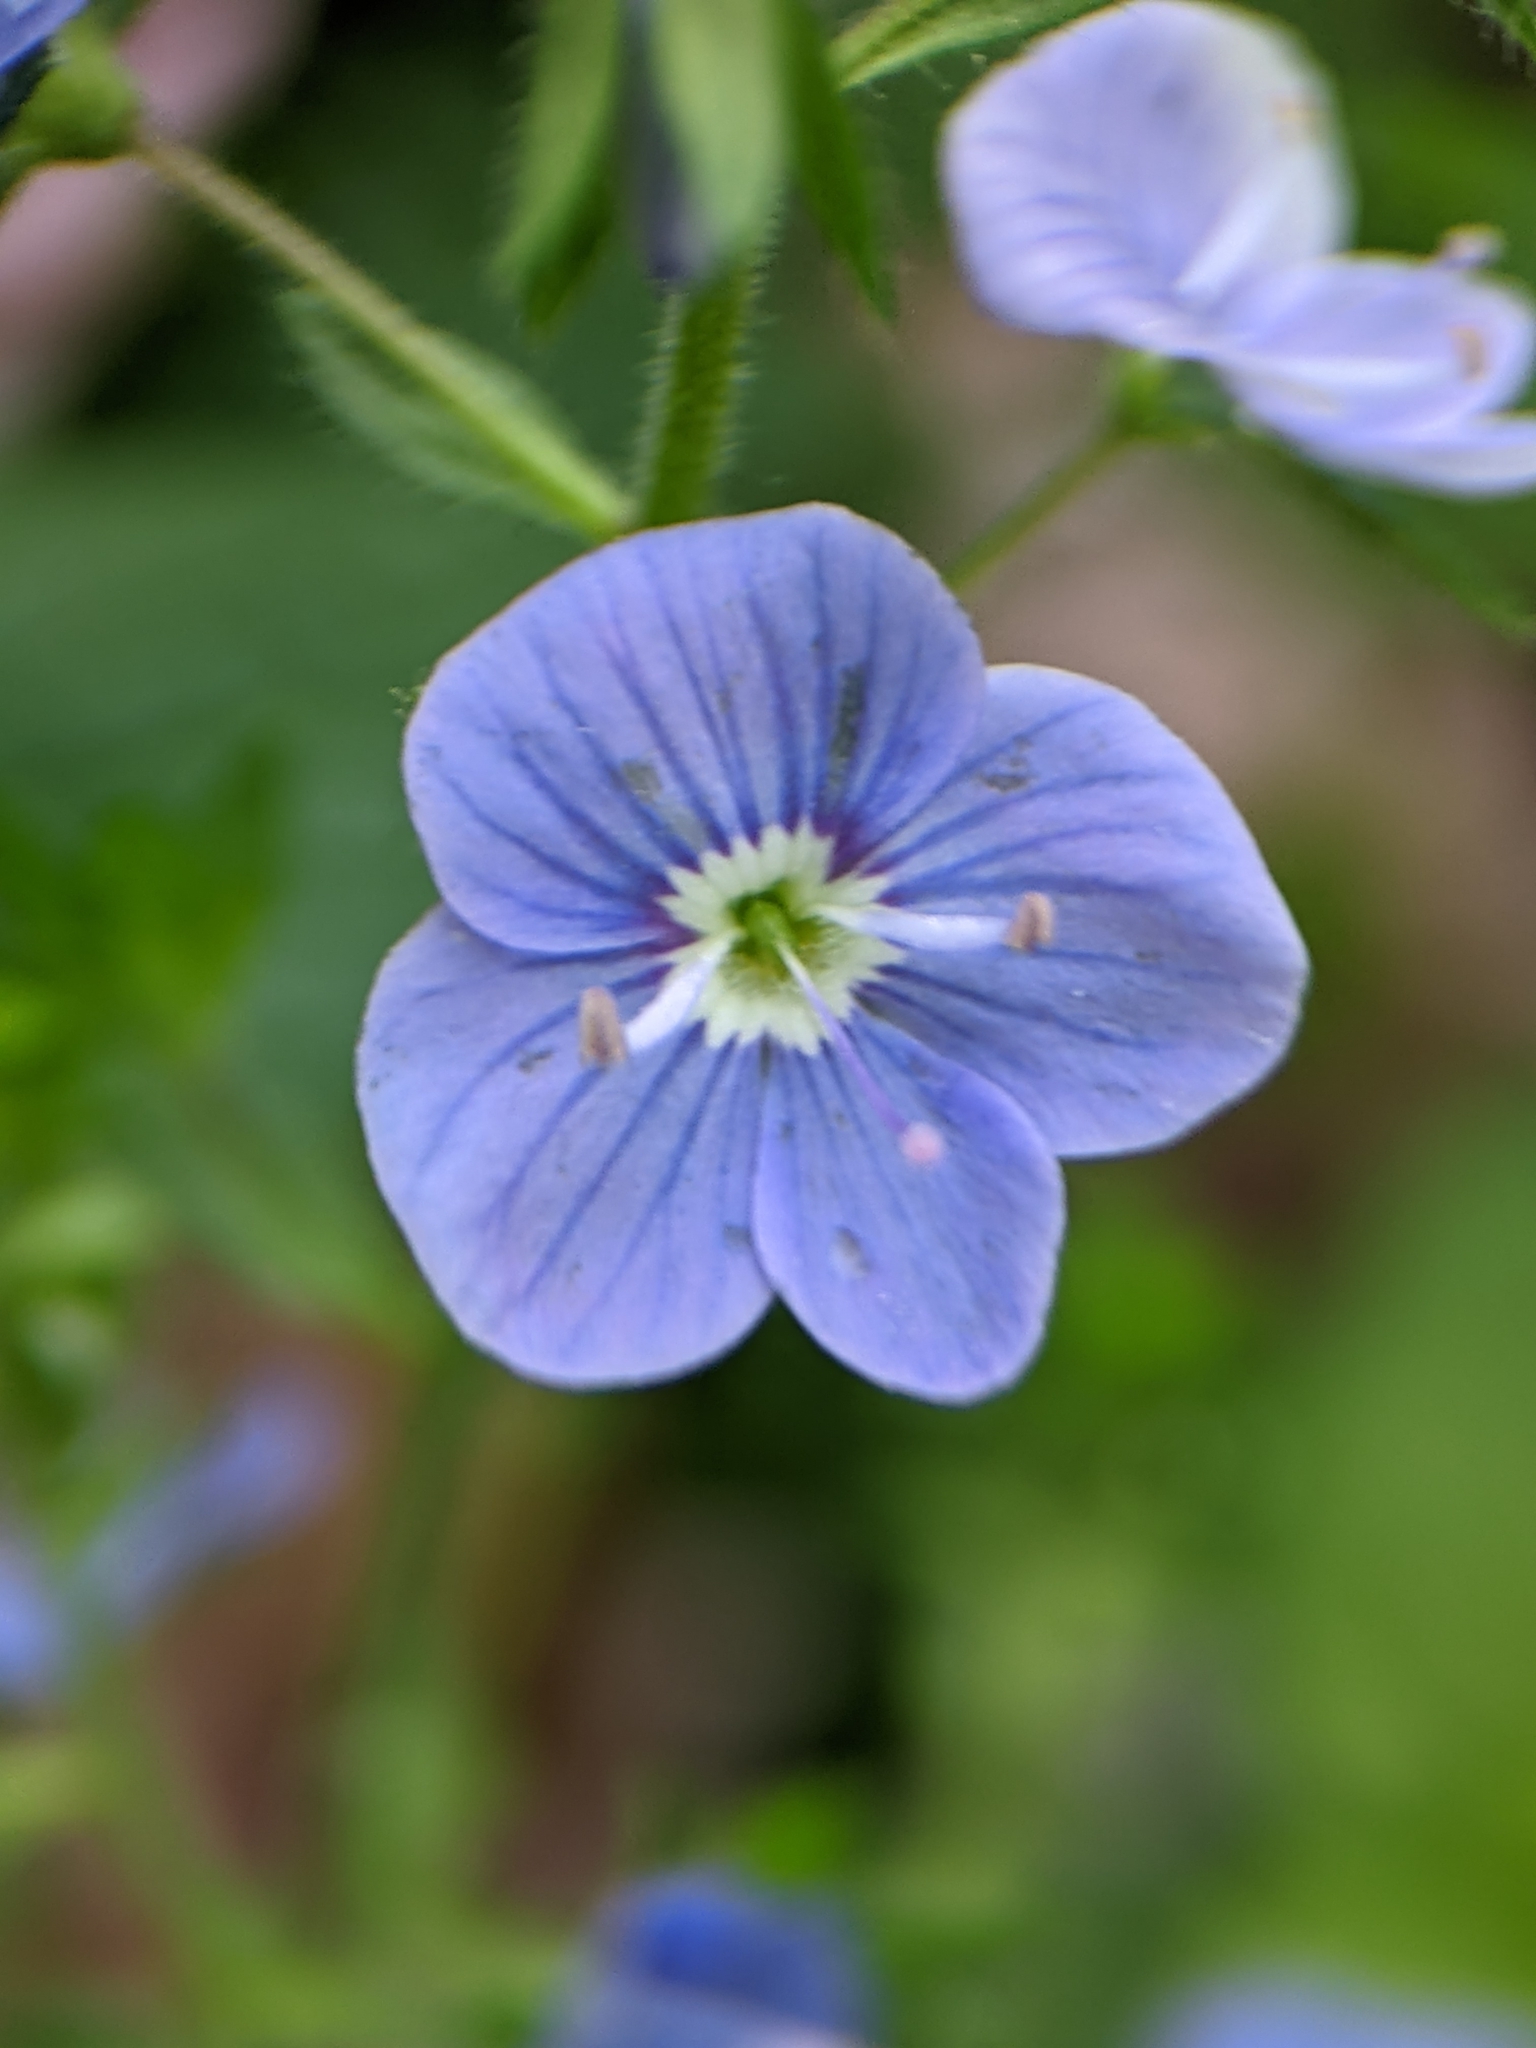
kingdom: Plantae
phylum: Tracheophyta
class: Magnoliopsida
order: Lamiales
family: Plantaginaceae
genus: Veronica
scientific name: Veronica chamaedrys
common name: Germander speedwell
